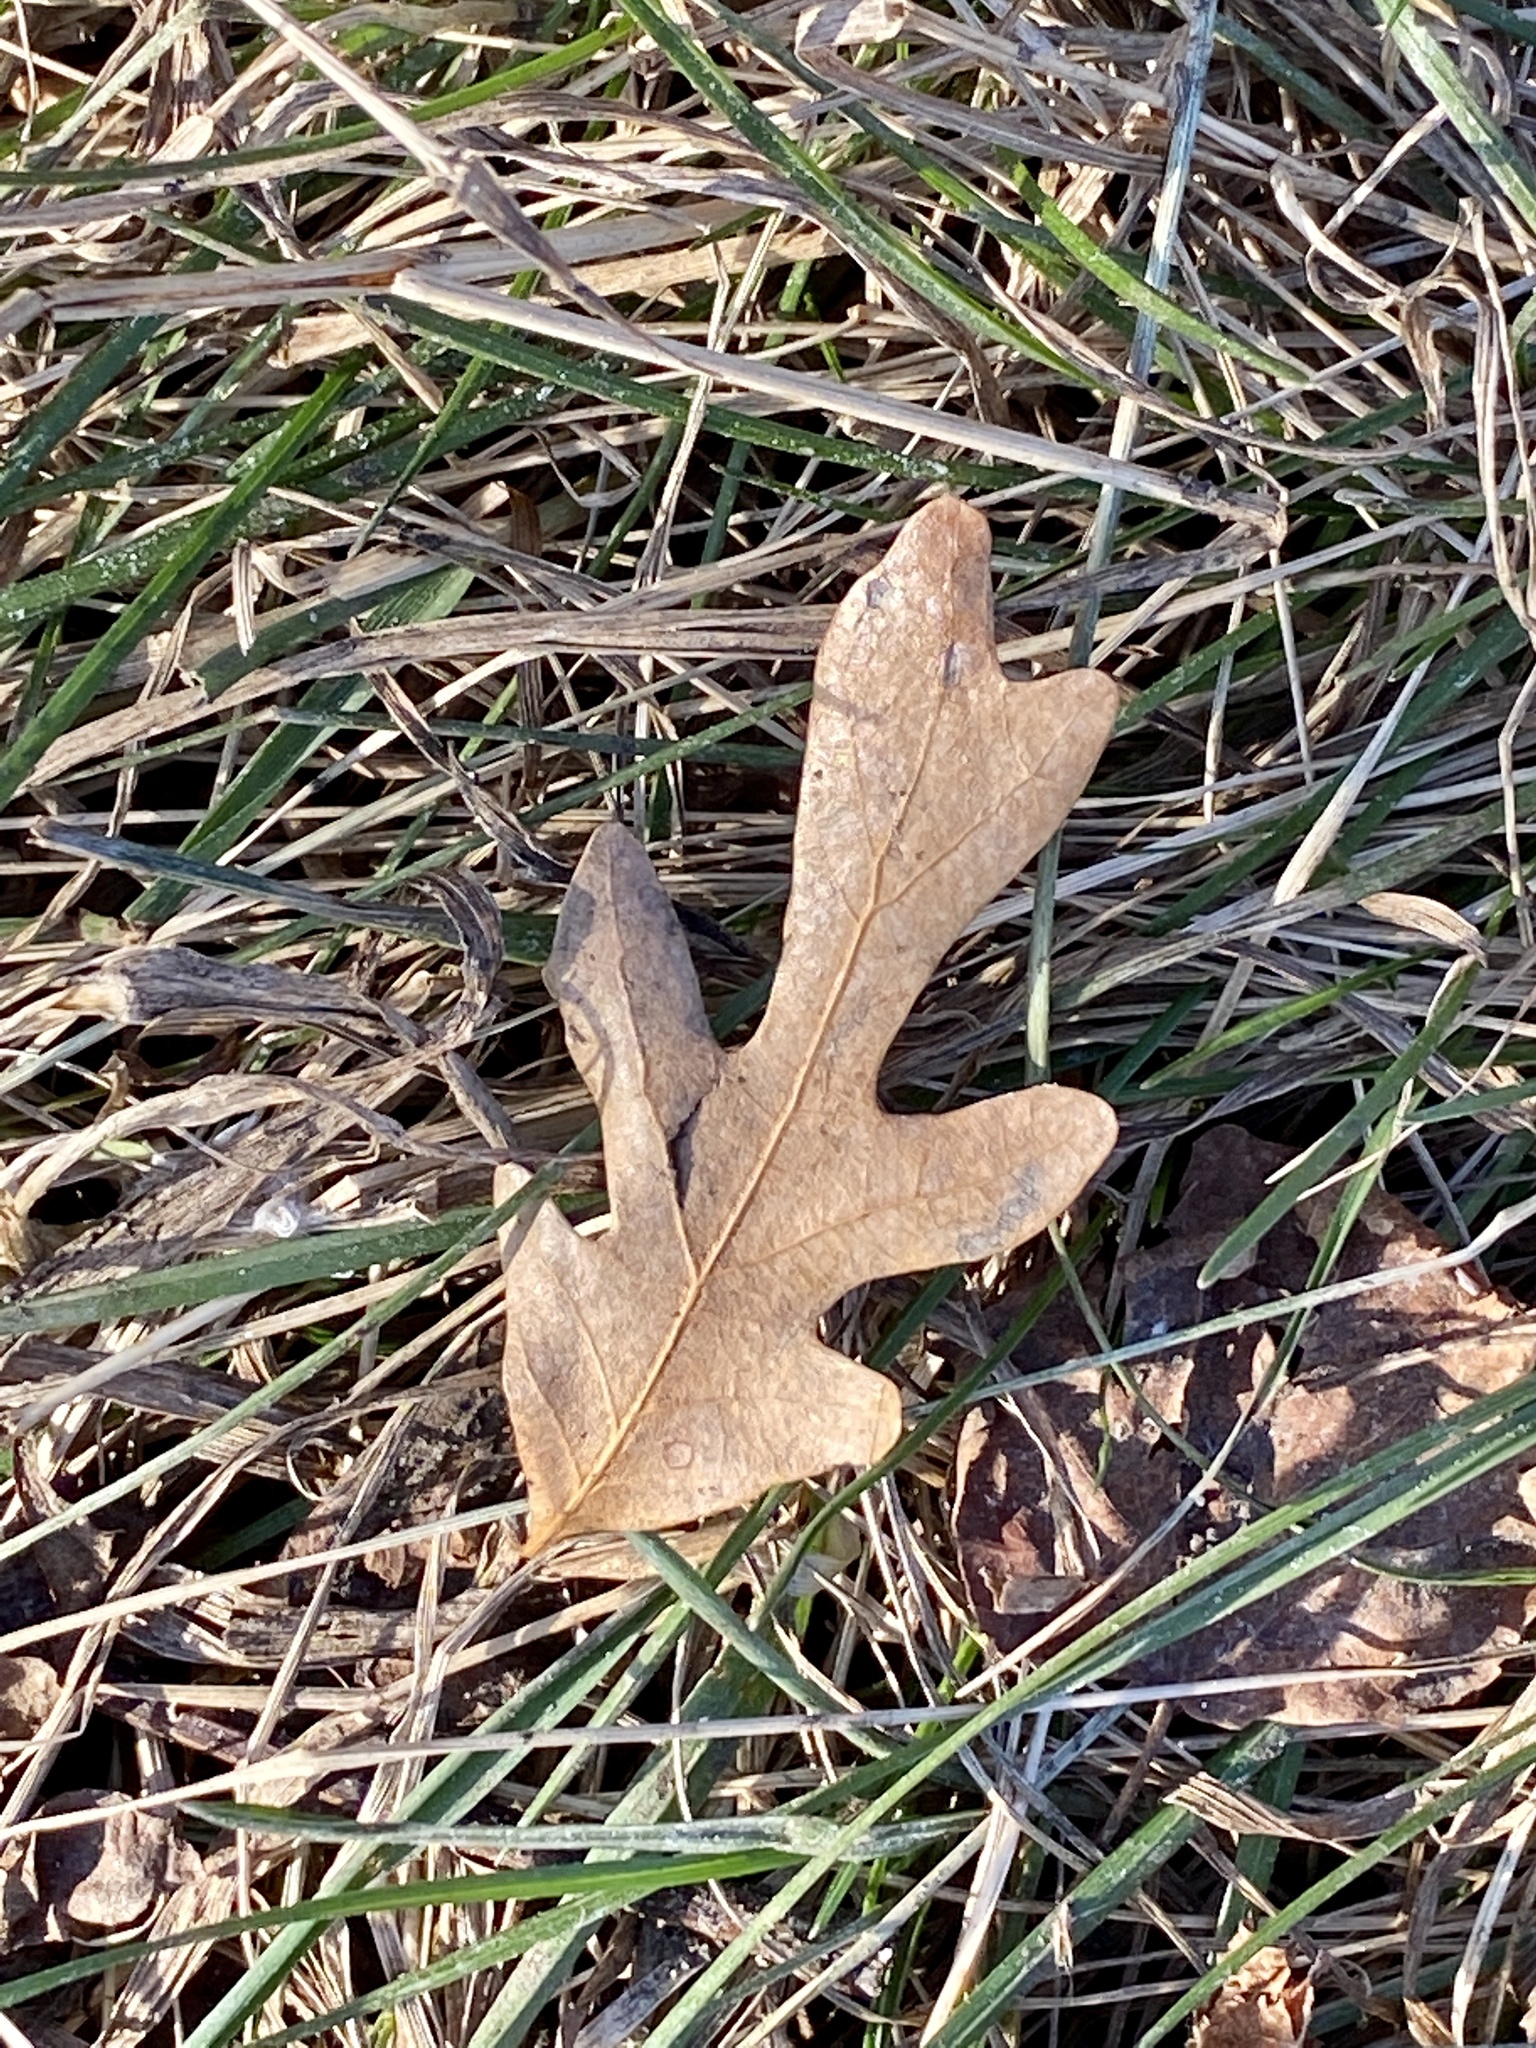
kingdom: Plantae
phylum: Tracheophyta
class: Magnoliopsida
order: Fagales
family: Fagaceae
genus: Quercus
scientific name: Quercus alba
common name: White oak
